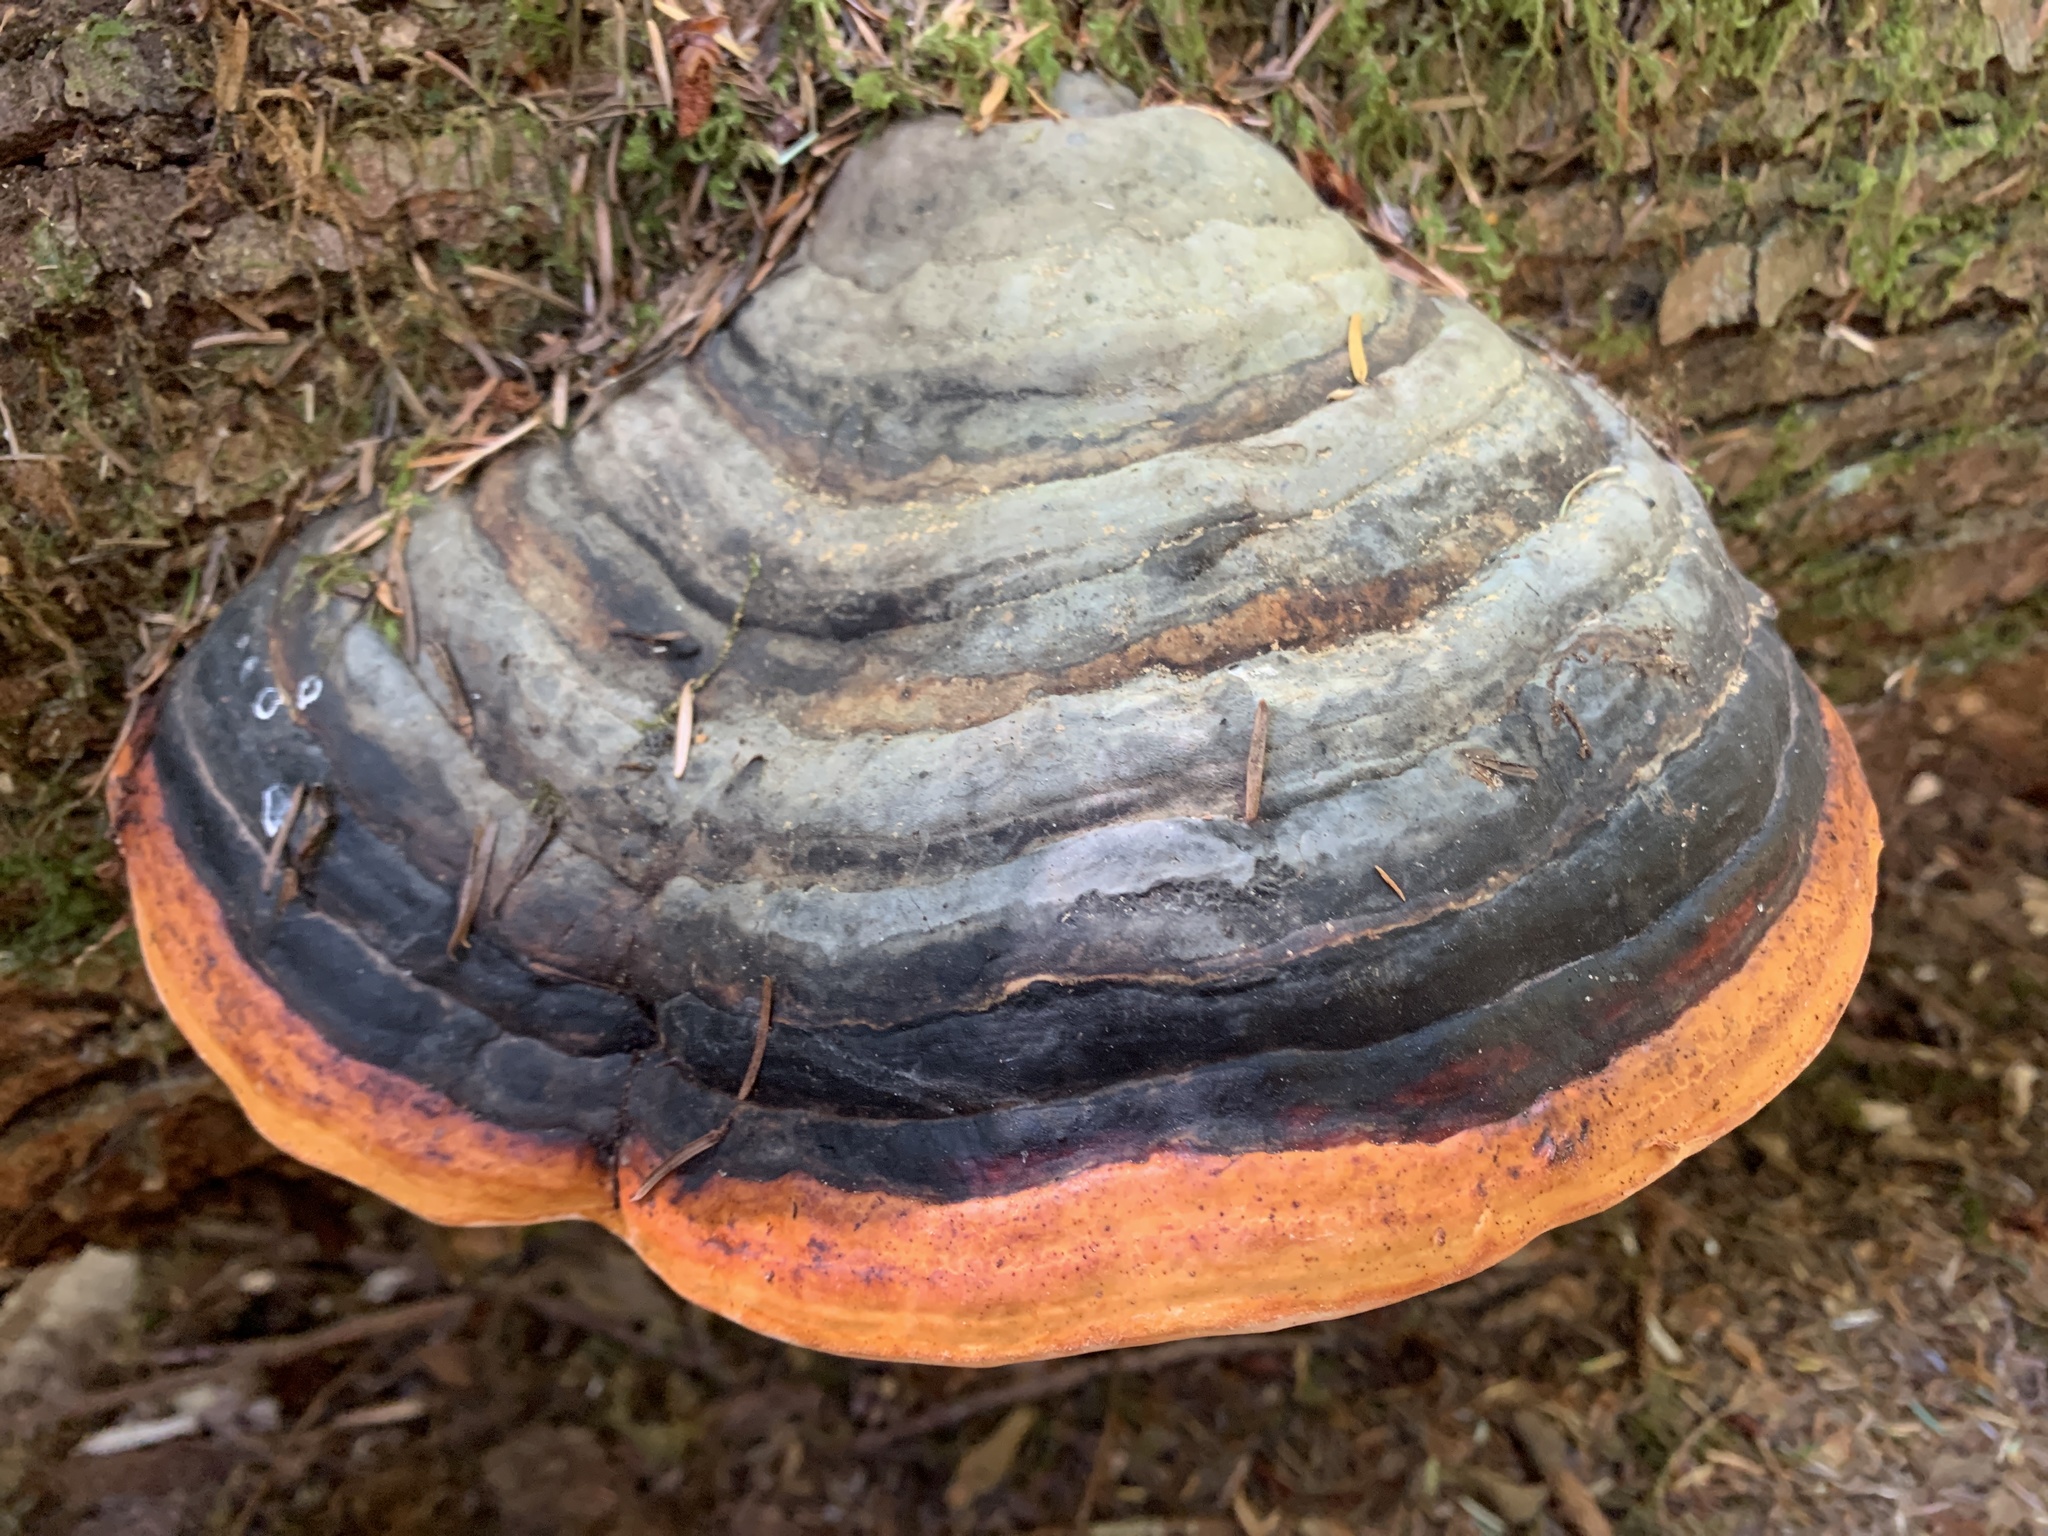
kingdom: Fungi
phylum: Basidiomycota
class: Agaricomycetes
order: Polyporales
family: Fomitopsidaceae
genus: Fomitopsis
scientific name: Fomitopsis mounceae
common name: Northern red belt
